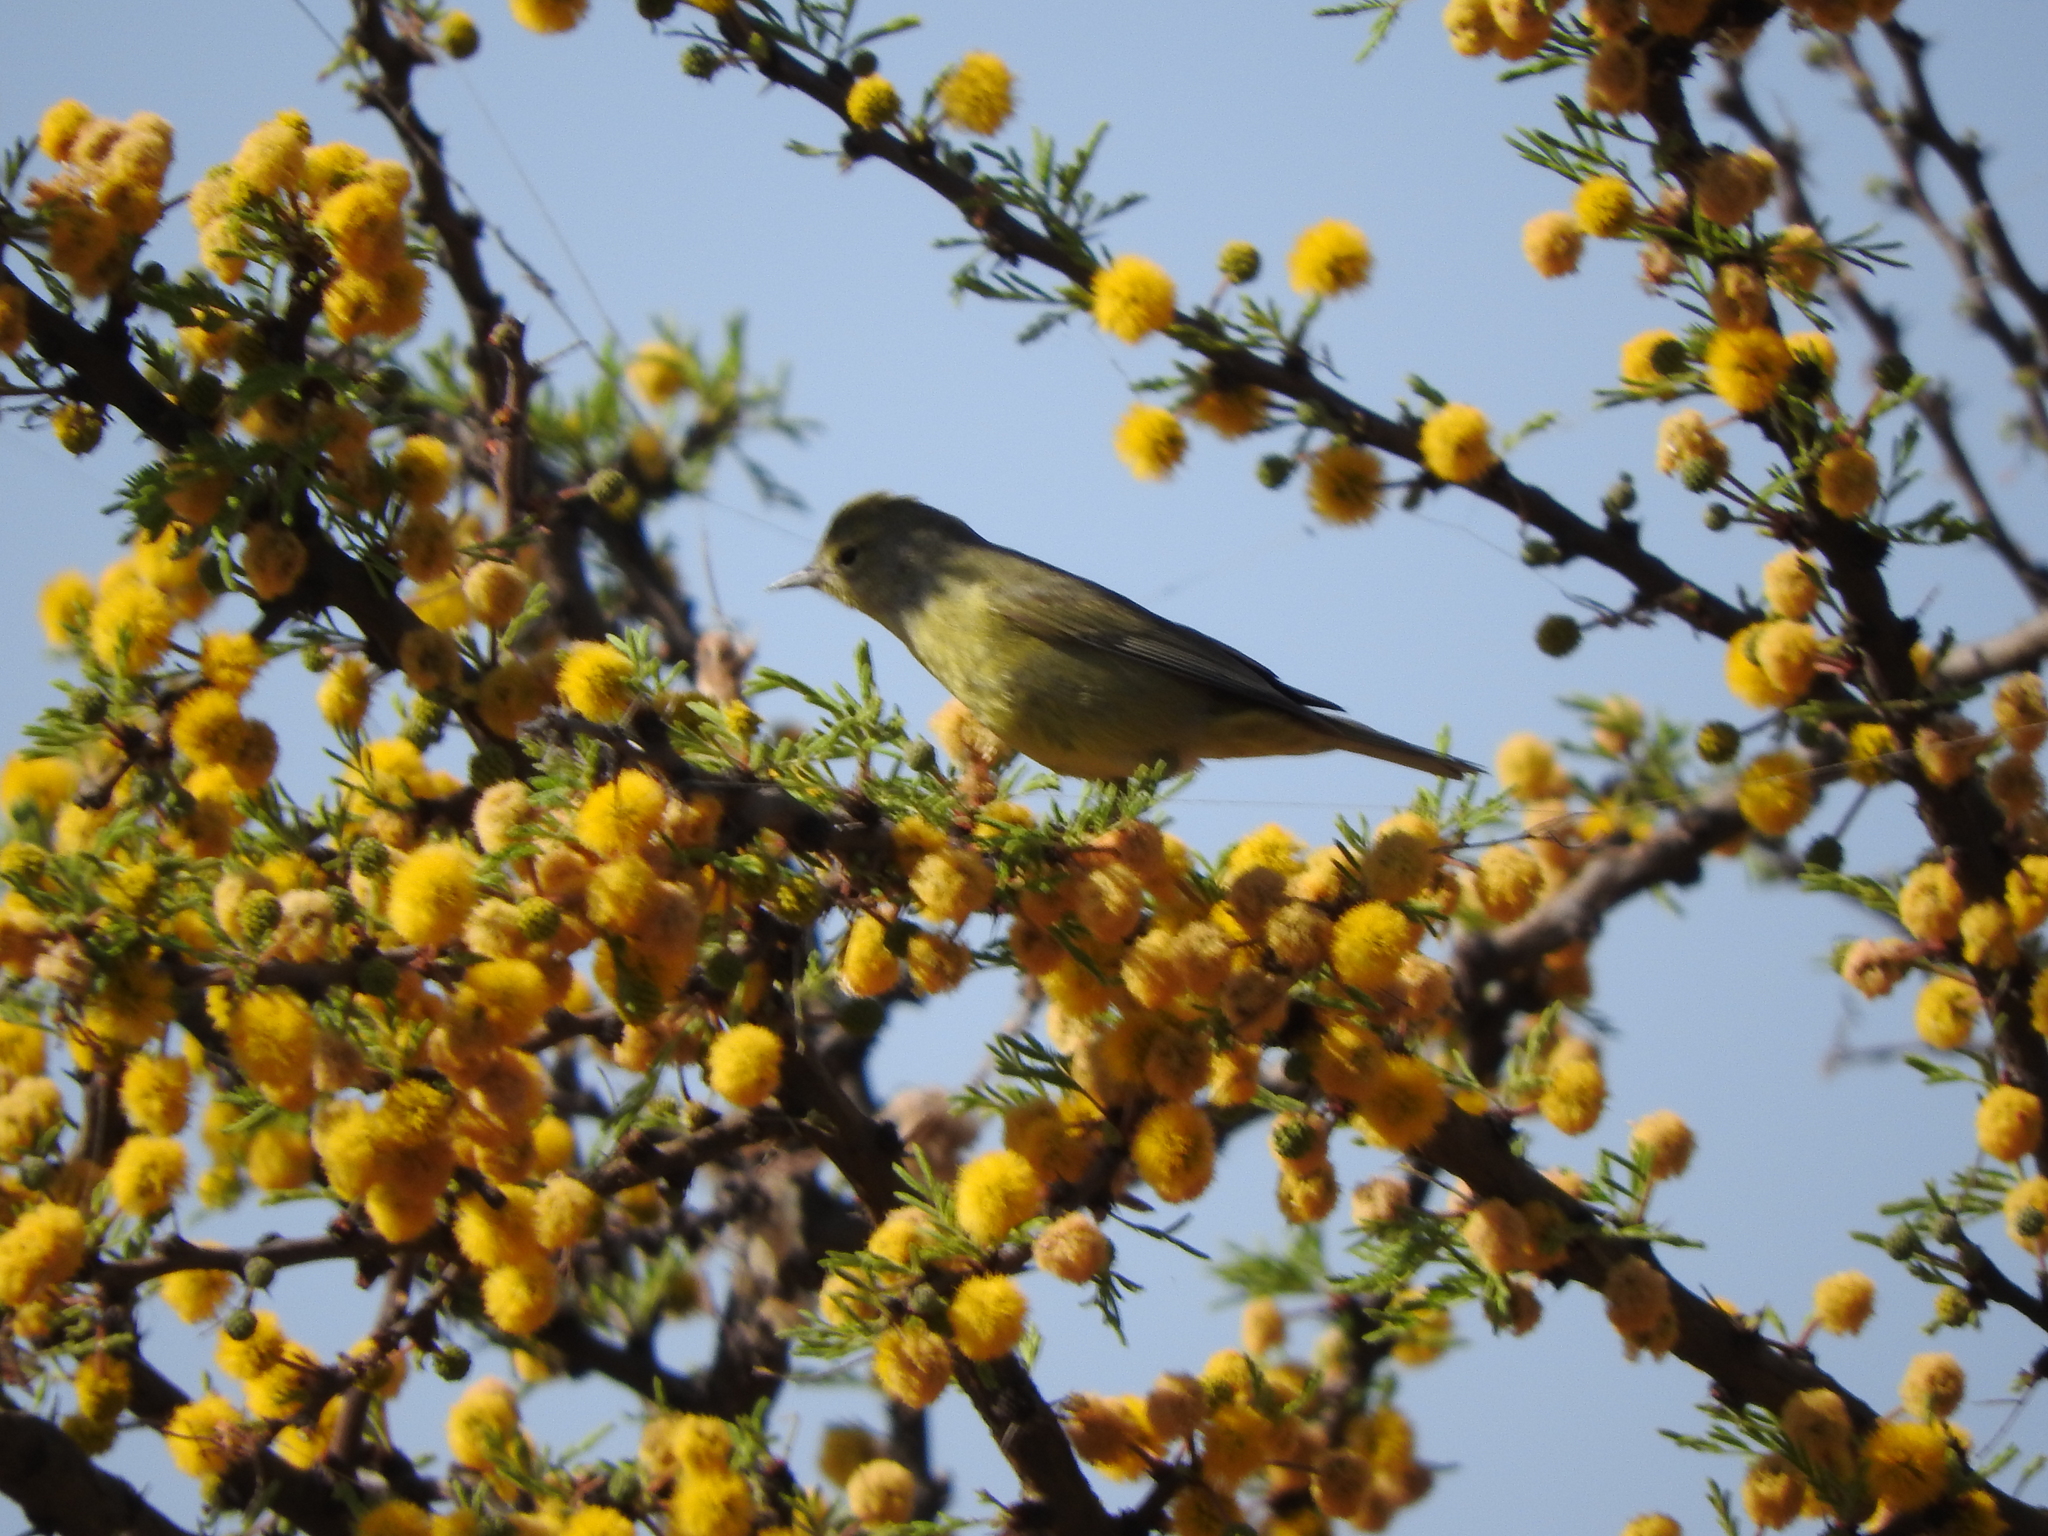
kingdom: Animalia
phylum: Chordata
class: Aves
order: Passeriformes
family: Parulidae
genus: Leiothlypis
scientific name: Leiothlypis celata
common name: Orange-crowned warbler
